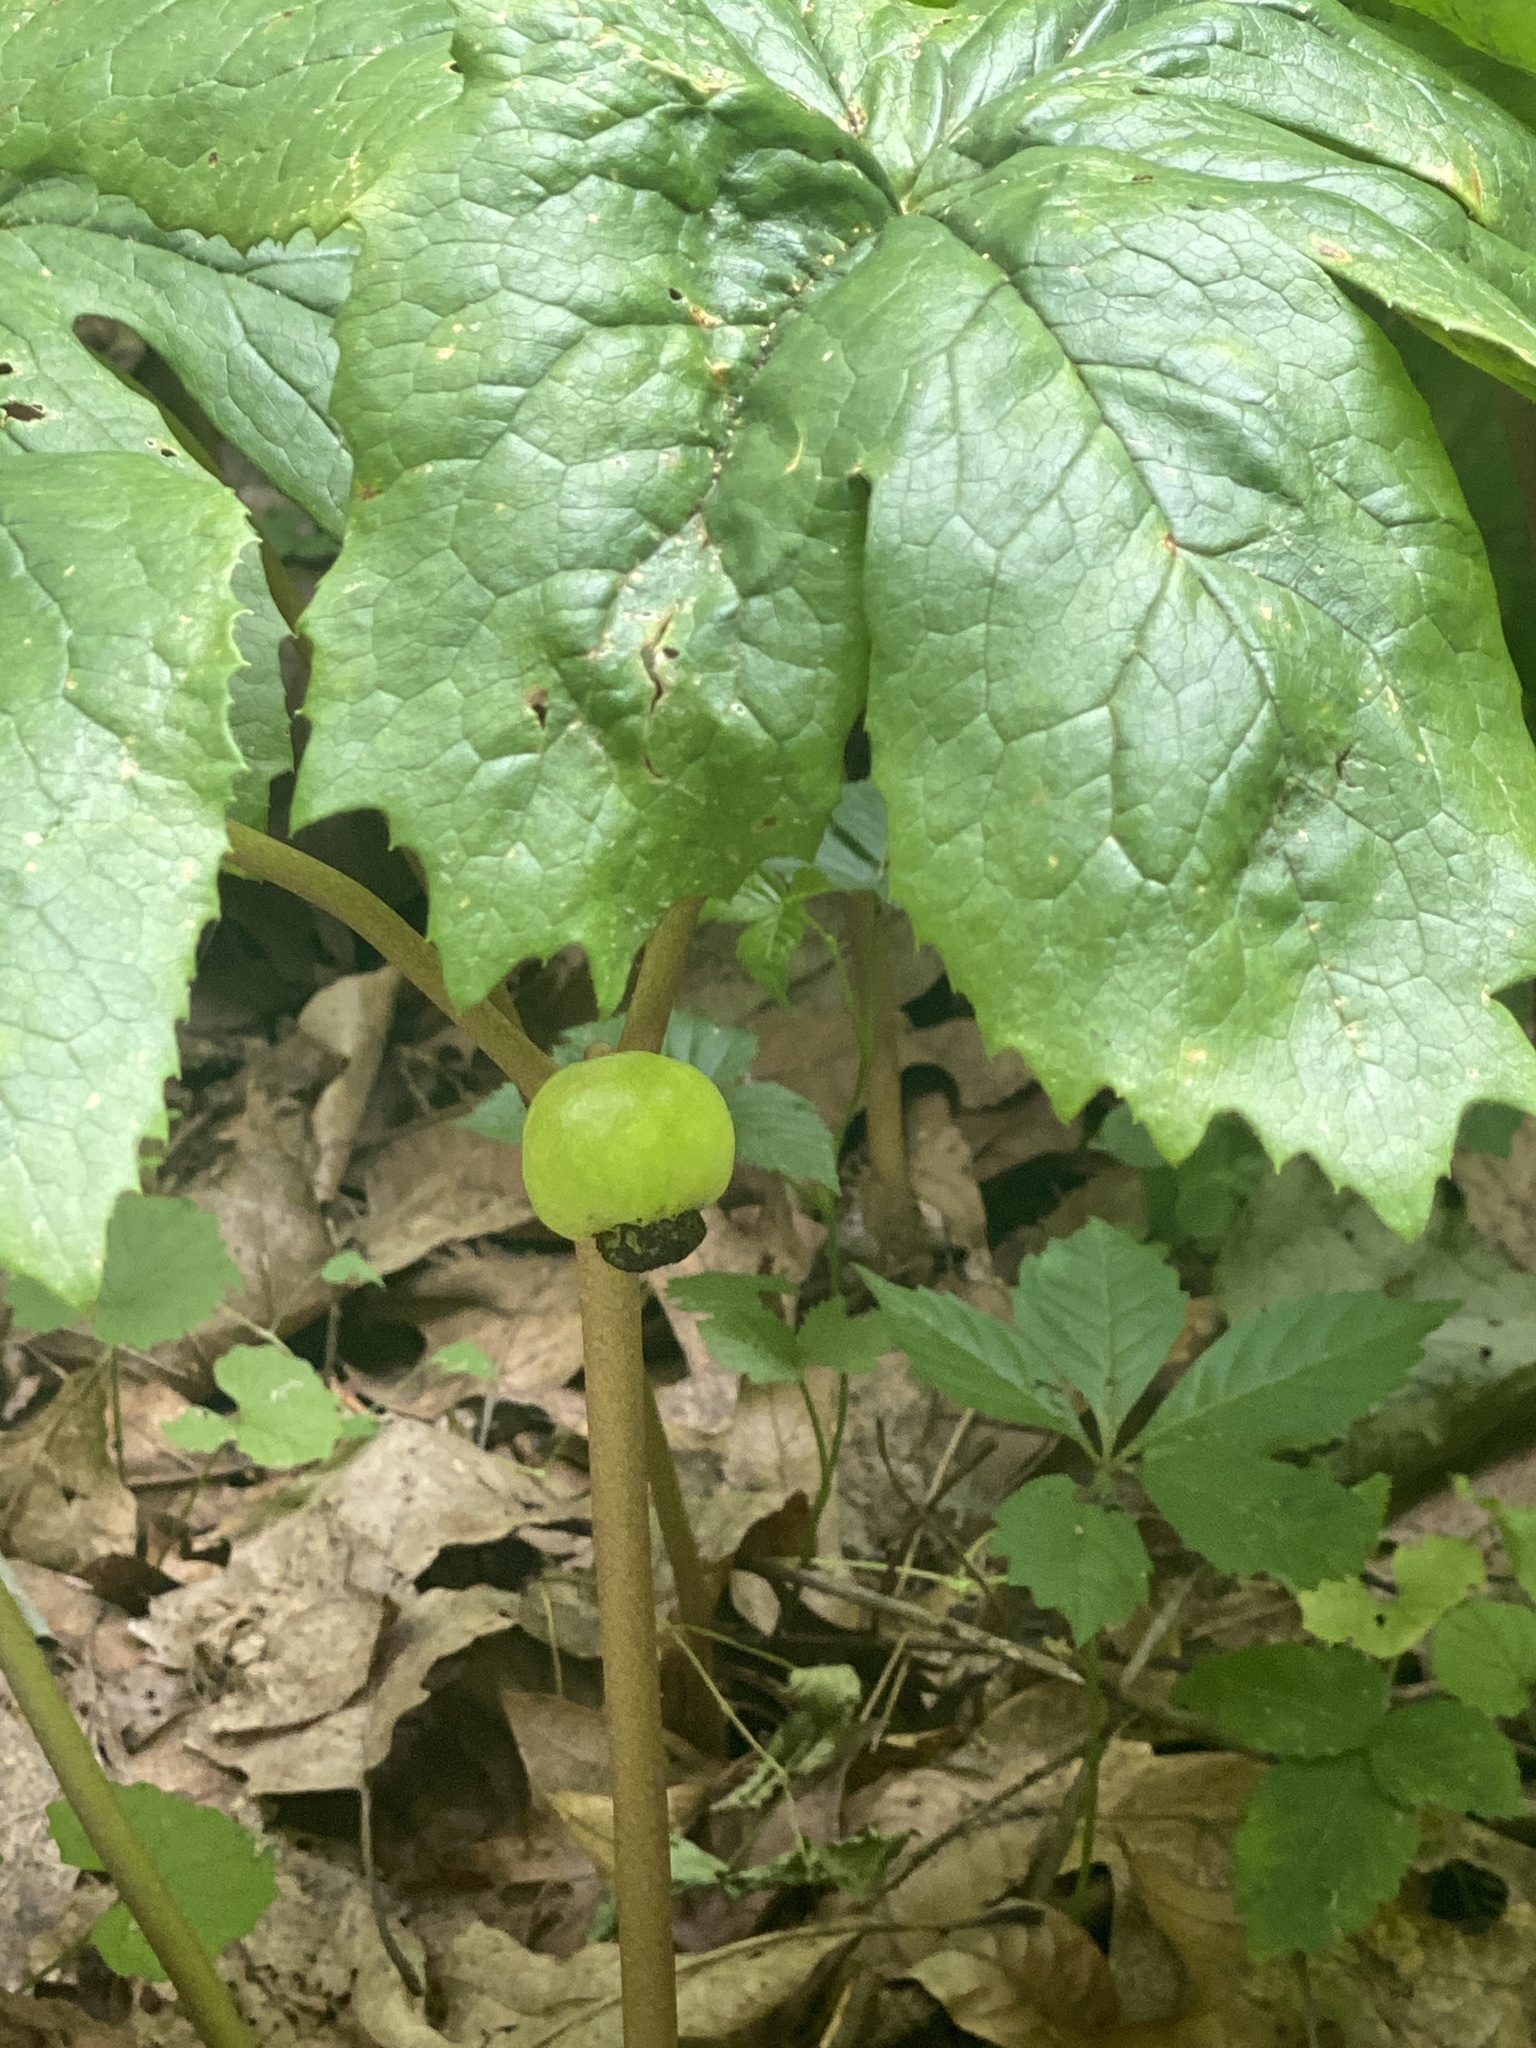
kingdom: Plantae
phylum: Tracheophyta
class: Magnoliopsida
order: Ranunculales
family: Berberidaceae
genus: Podophyllum
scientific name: Podophyllum peltatum
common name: Wild mandrake
